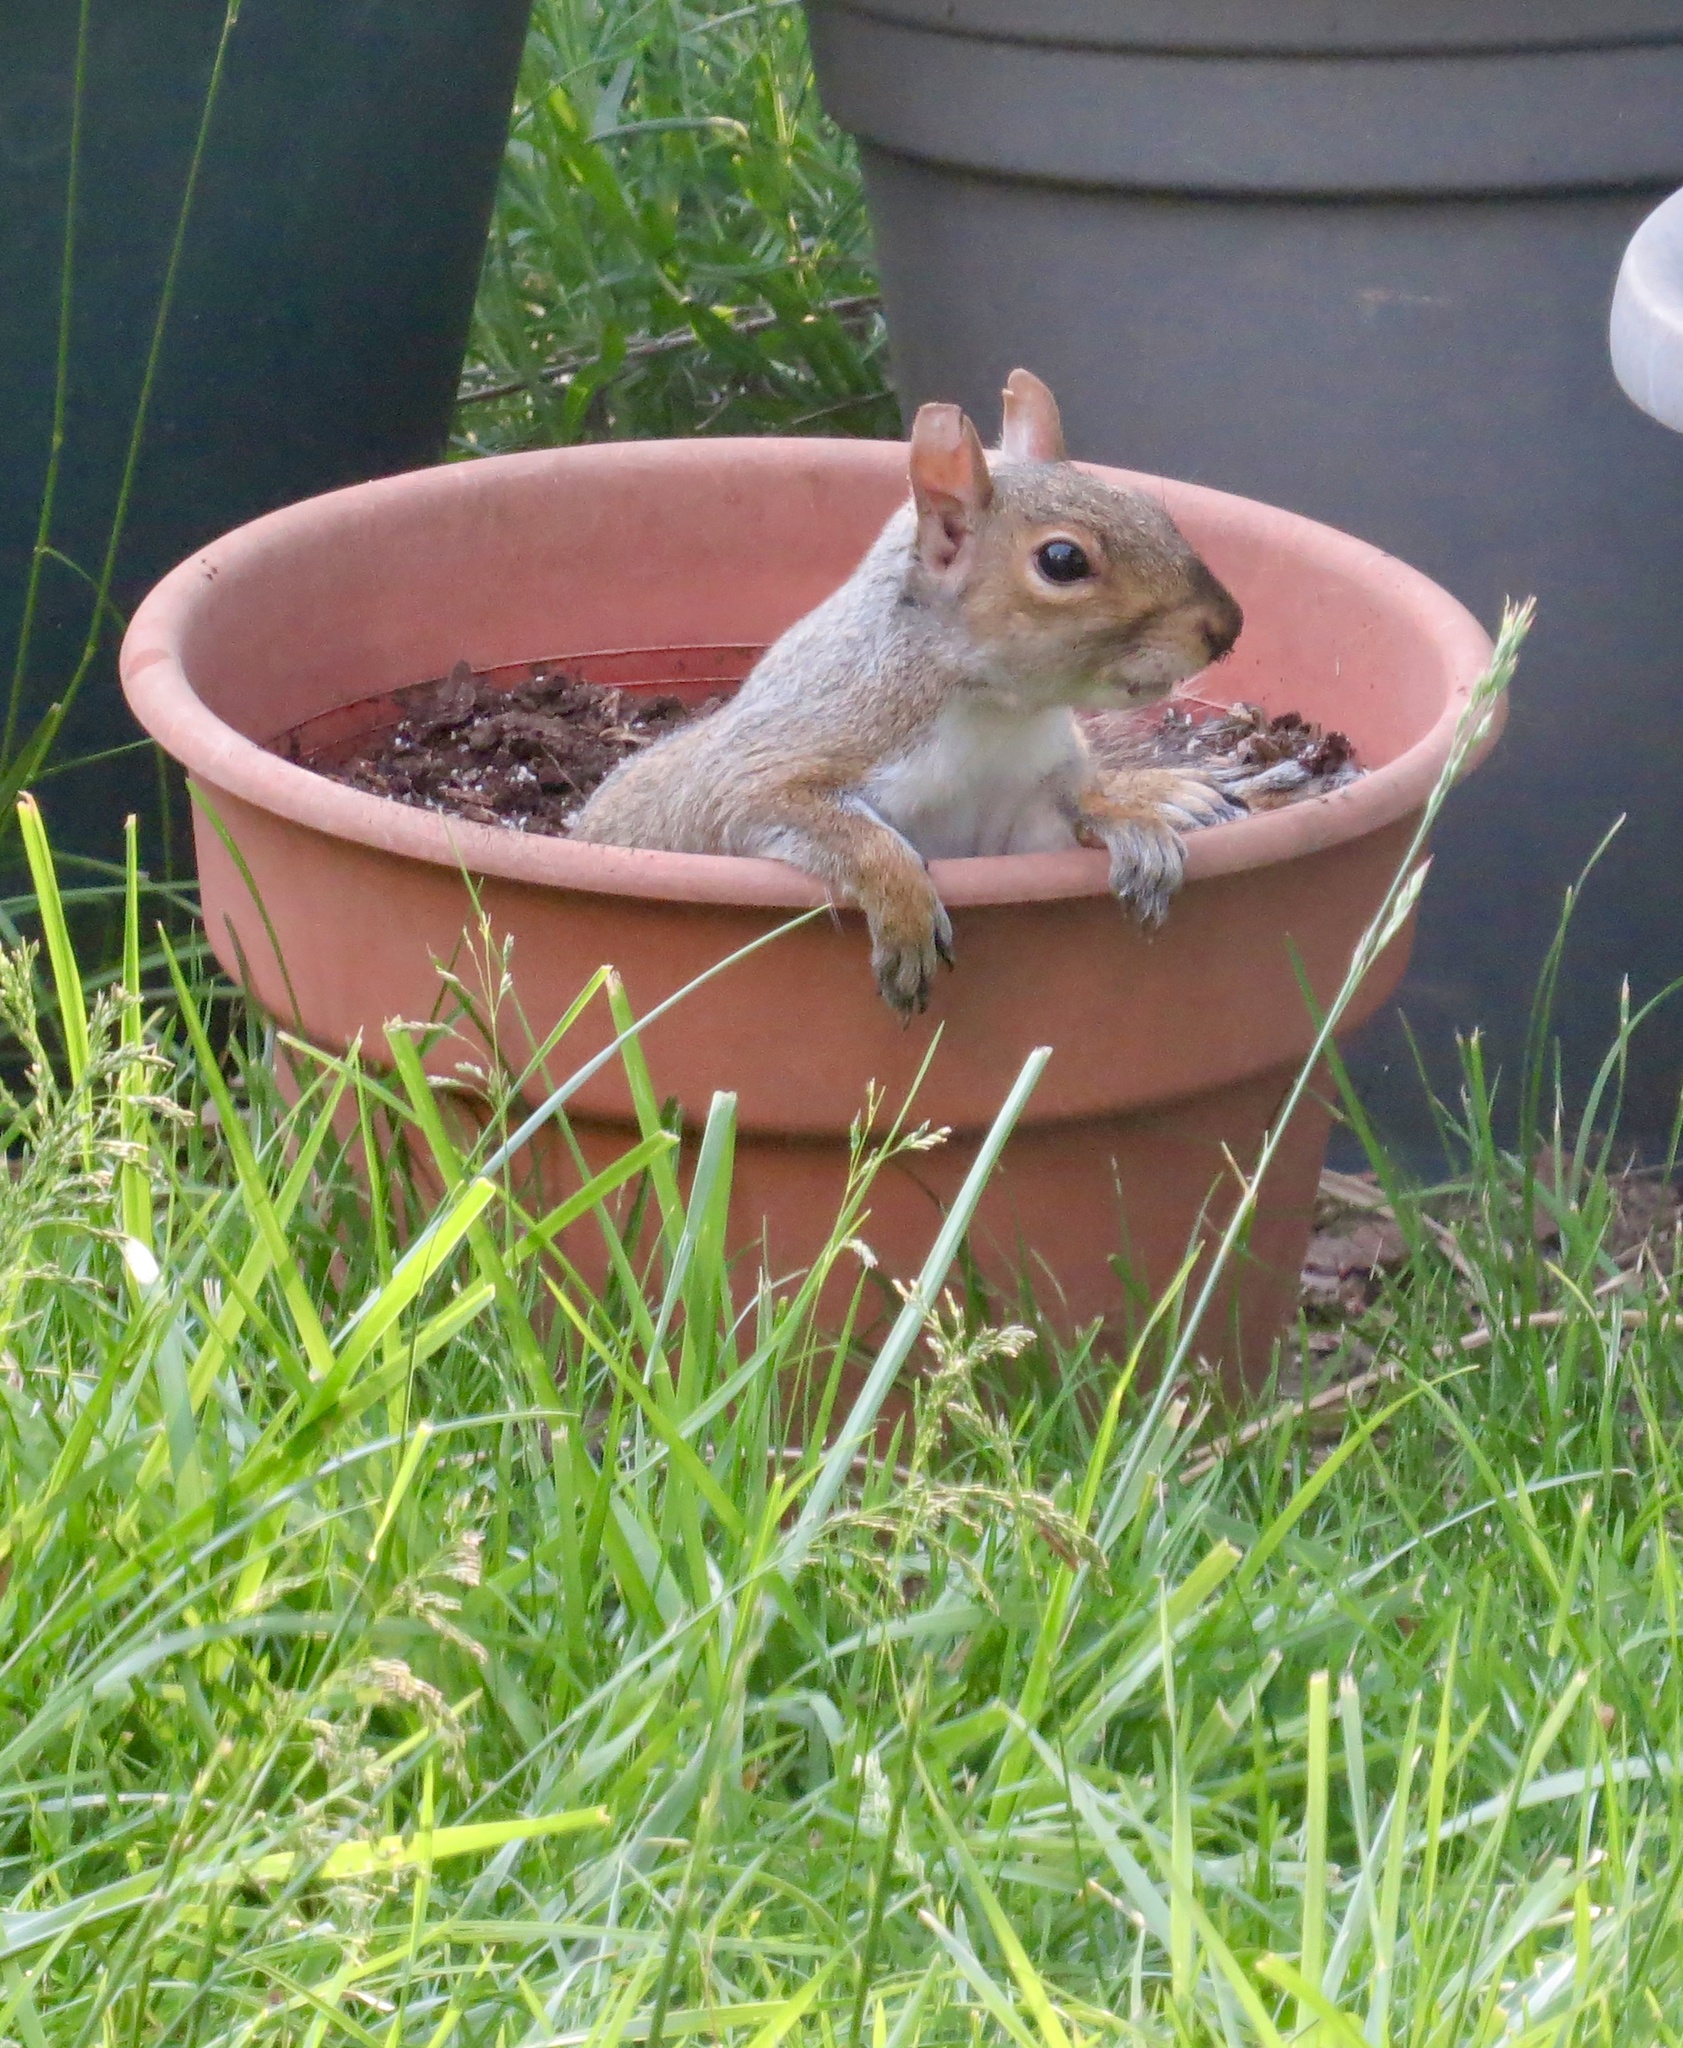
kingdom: Animalia
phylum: Chordata
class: Mammalia
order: Rodentia
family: Sciuridae
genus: Sciurus
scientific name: Sciurus carolinensis
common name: Eastern gray squirrel
